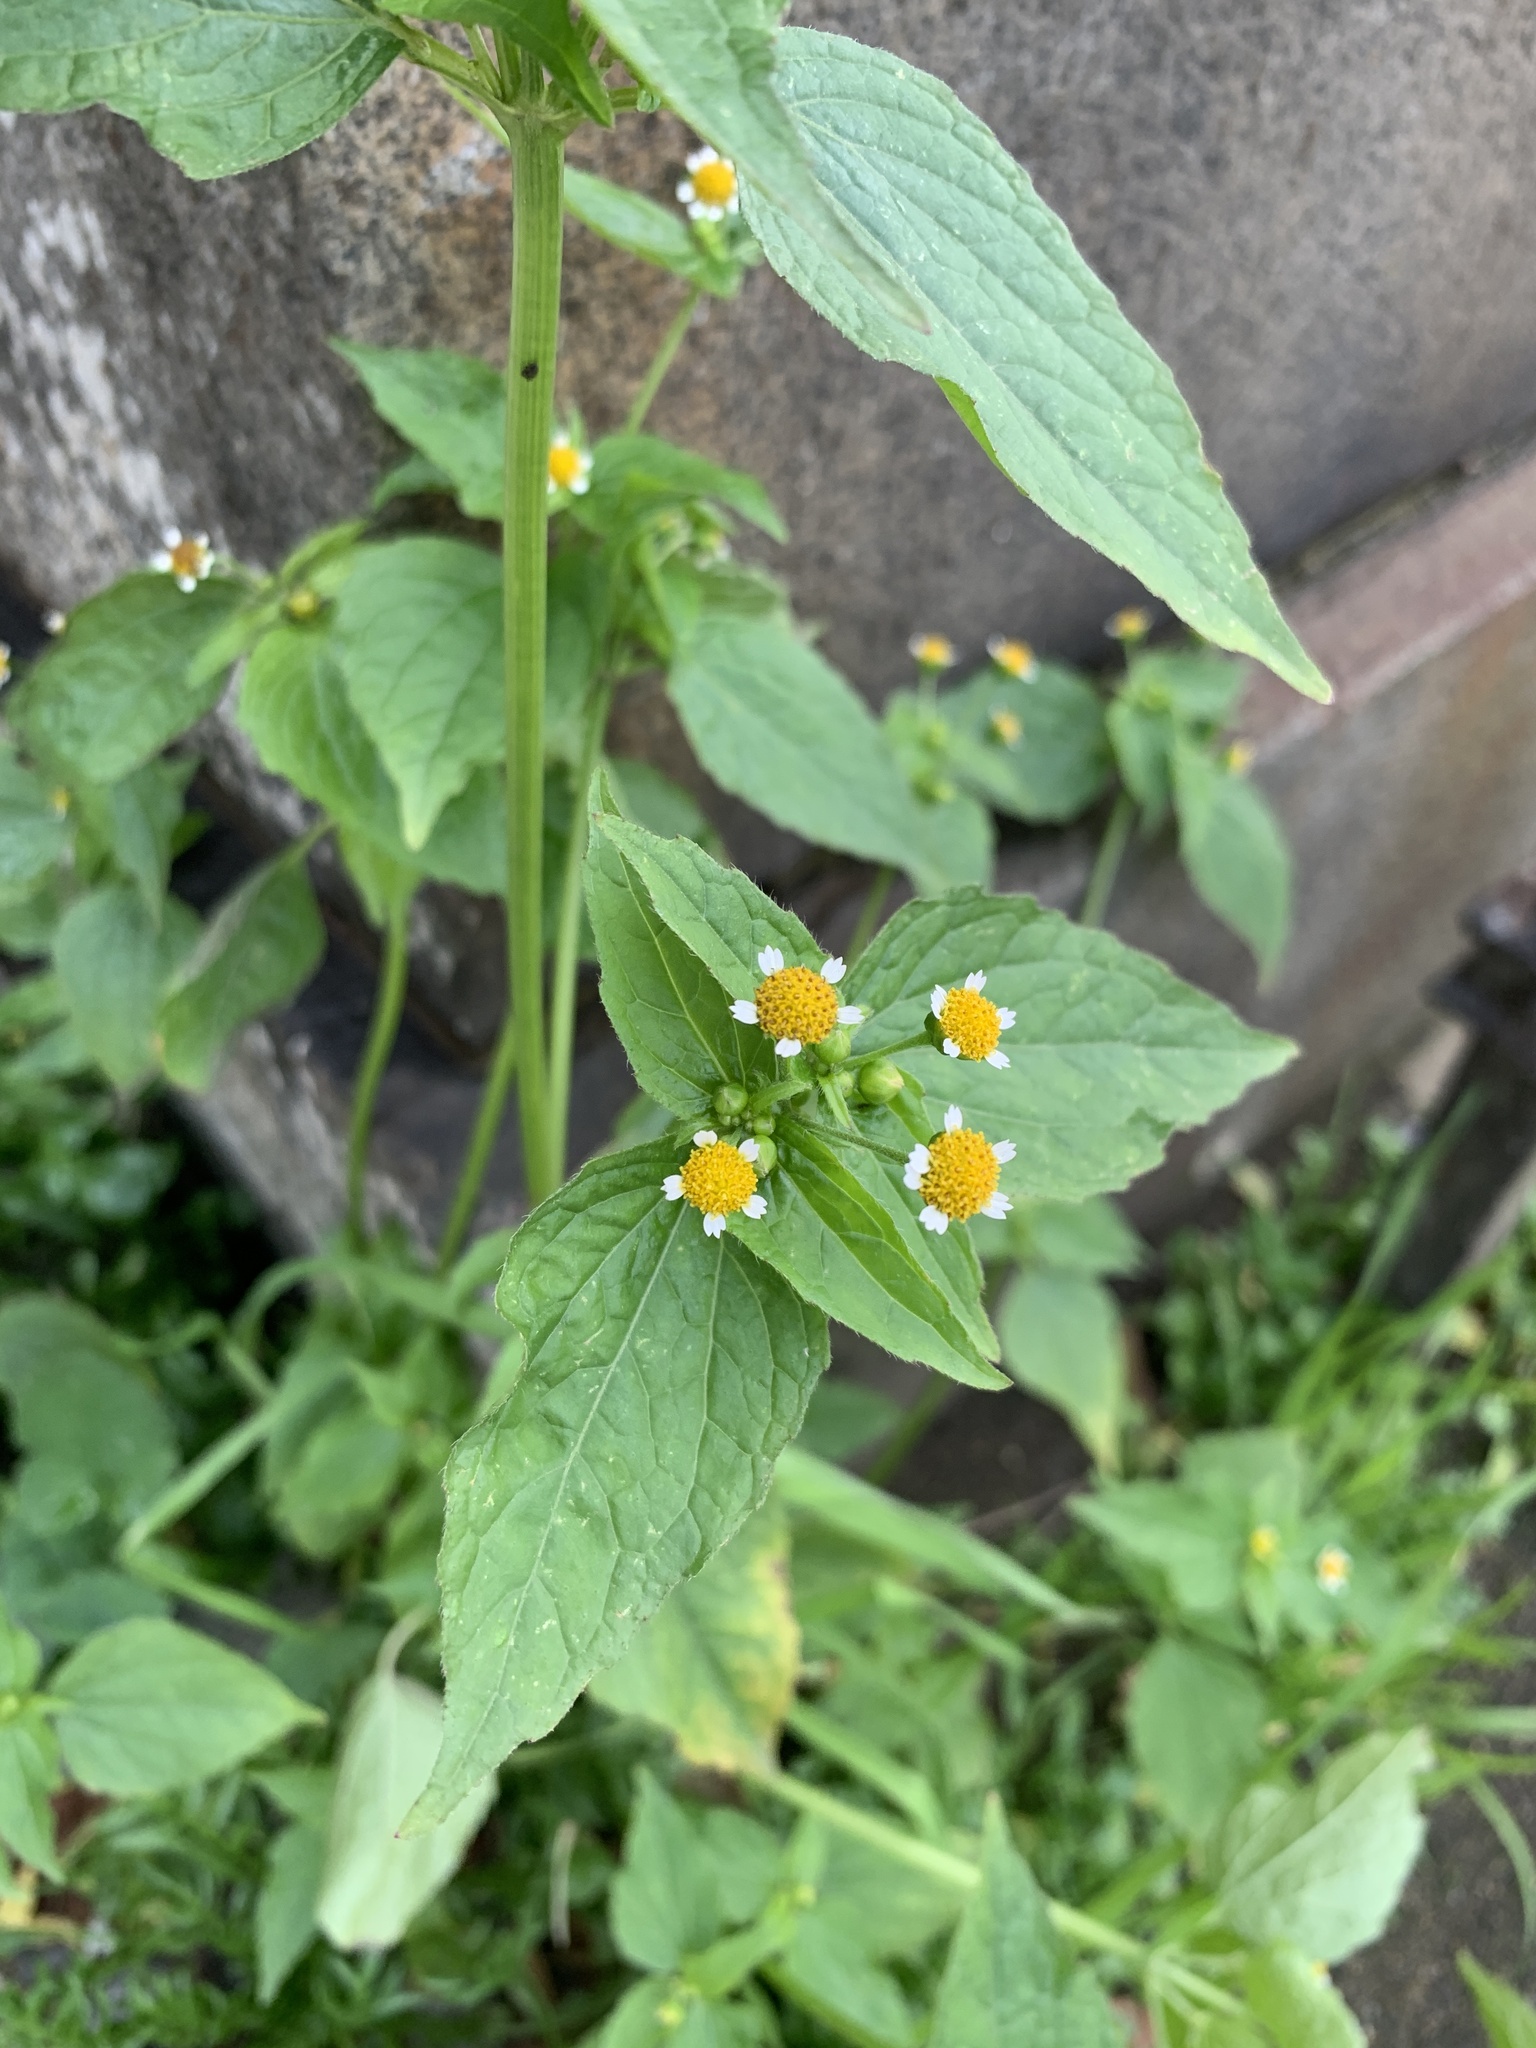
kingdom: Plantae
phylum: Tracheophyta
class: Magnoliopsida
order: Asterales
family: Asteraceae
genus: Galinsoga
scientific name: Galinsoga parviflora
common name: Gallant soldier
